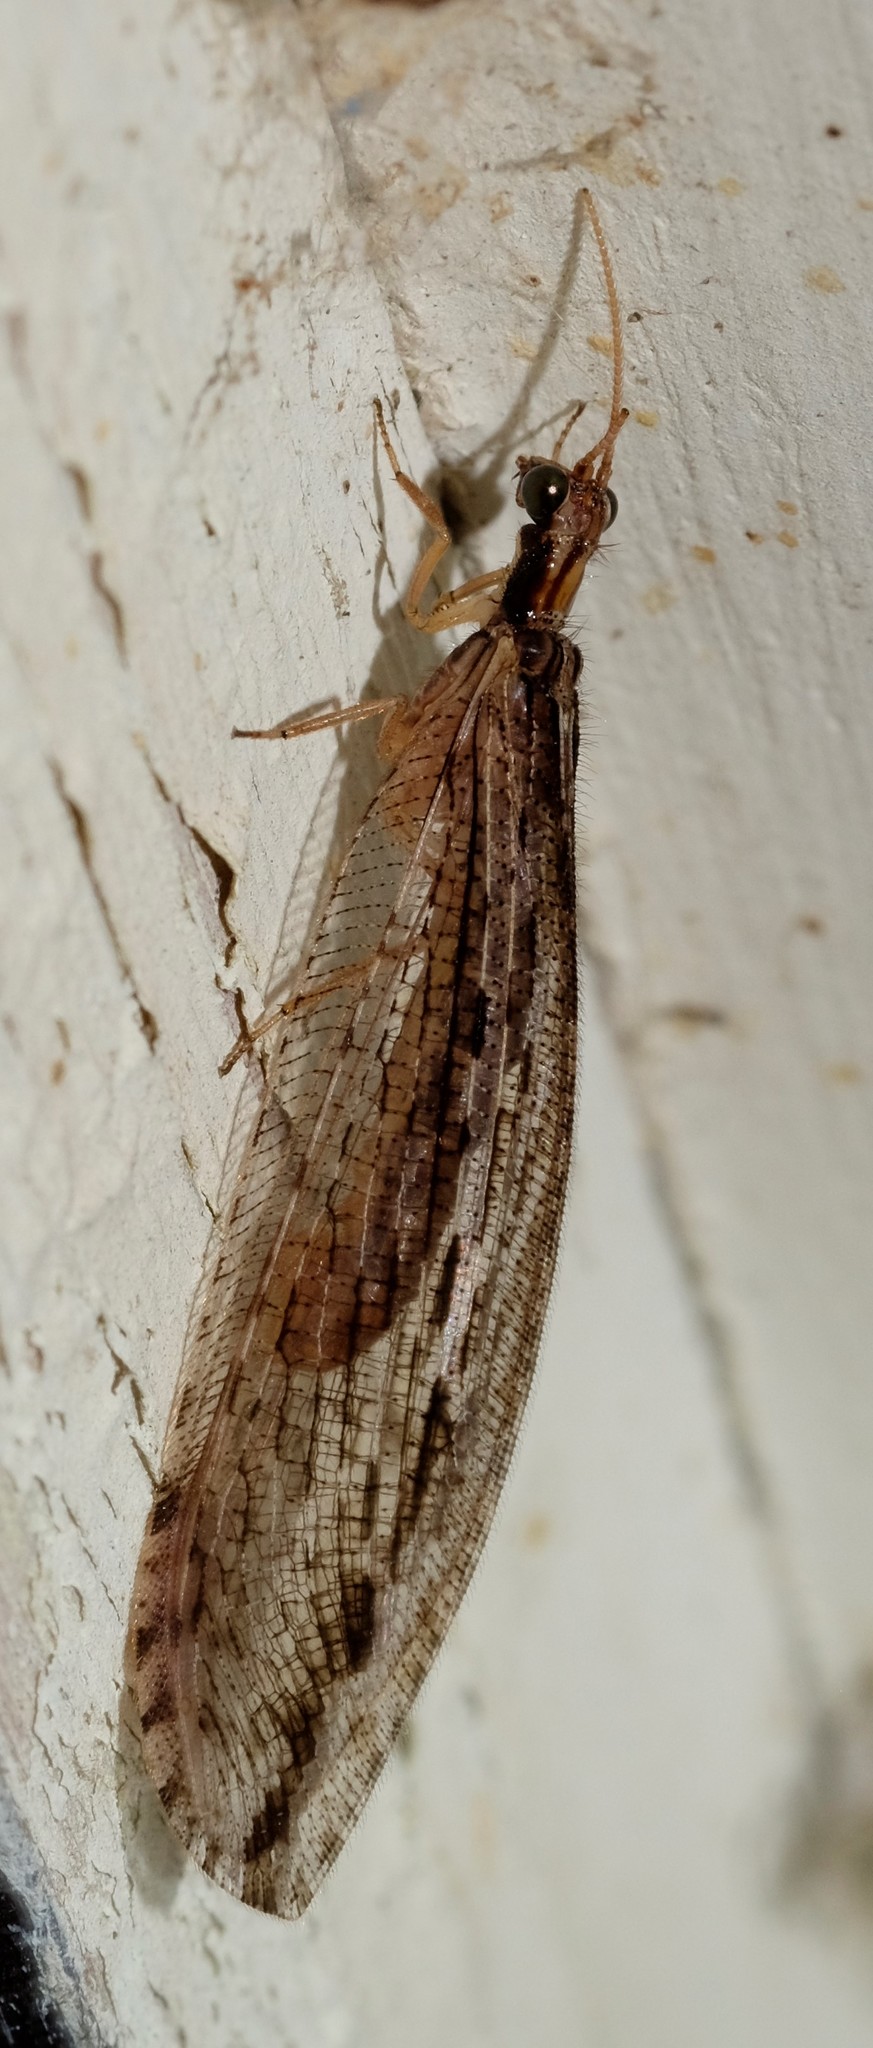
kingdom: Animalia
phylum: Arthropoda
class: Insecta
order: Neuroptera
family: Osmylidae
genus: Stenosmylus
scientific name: Stenosmylus stenopterus
